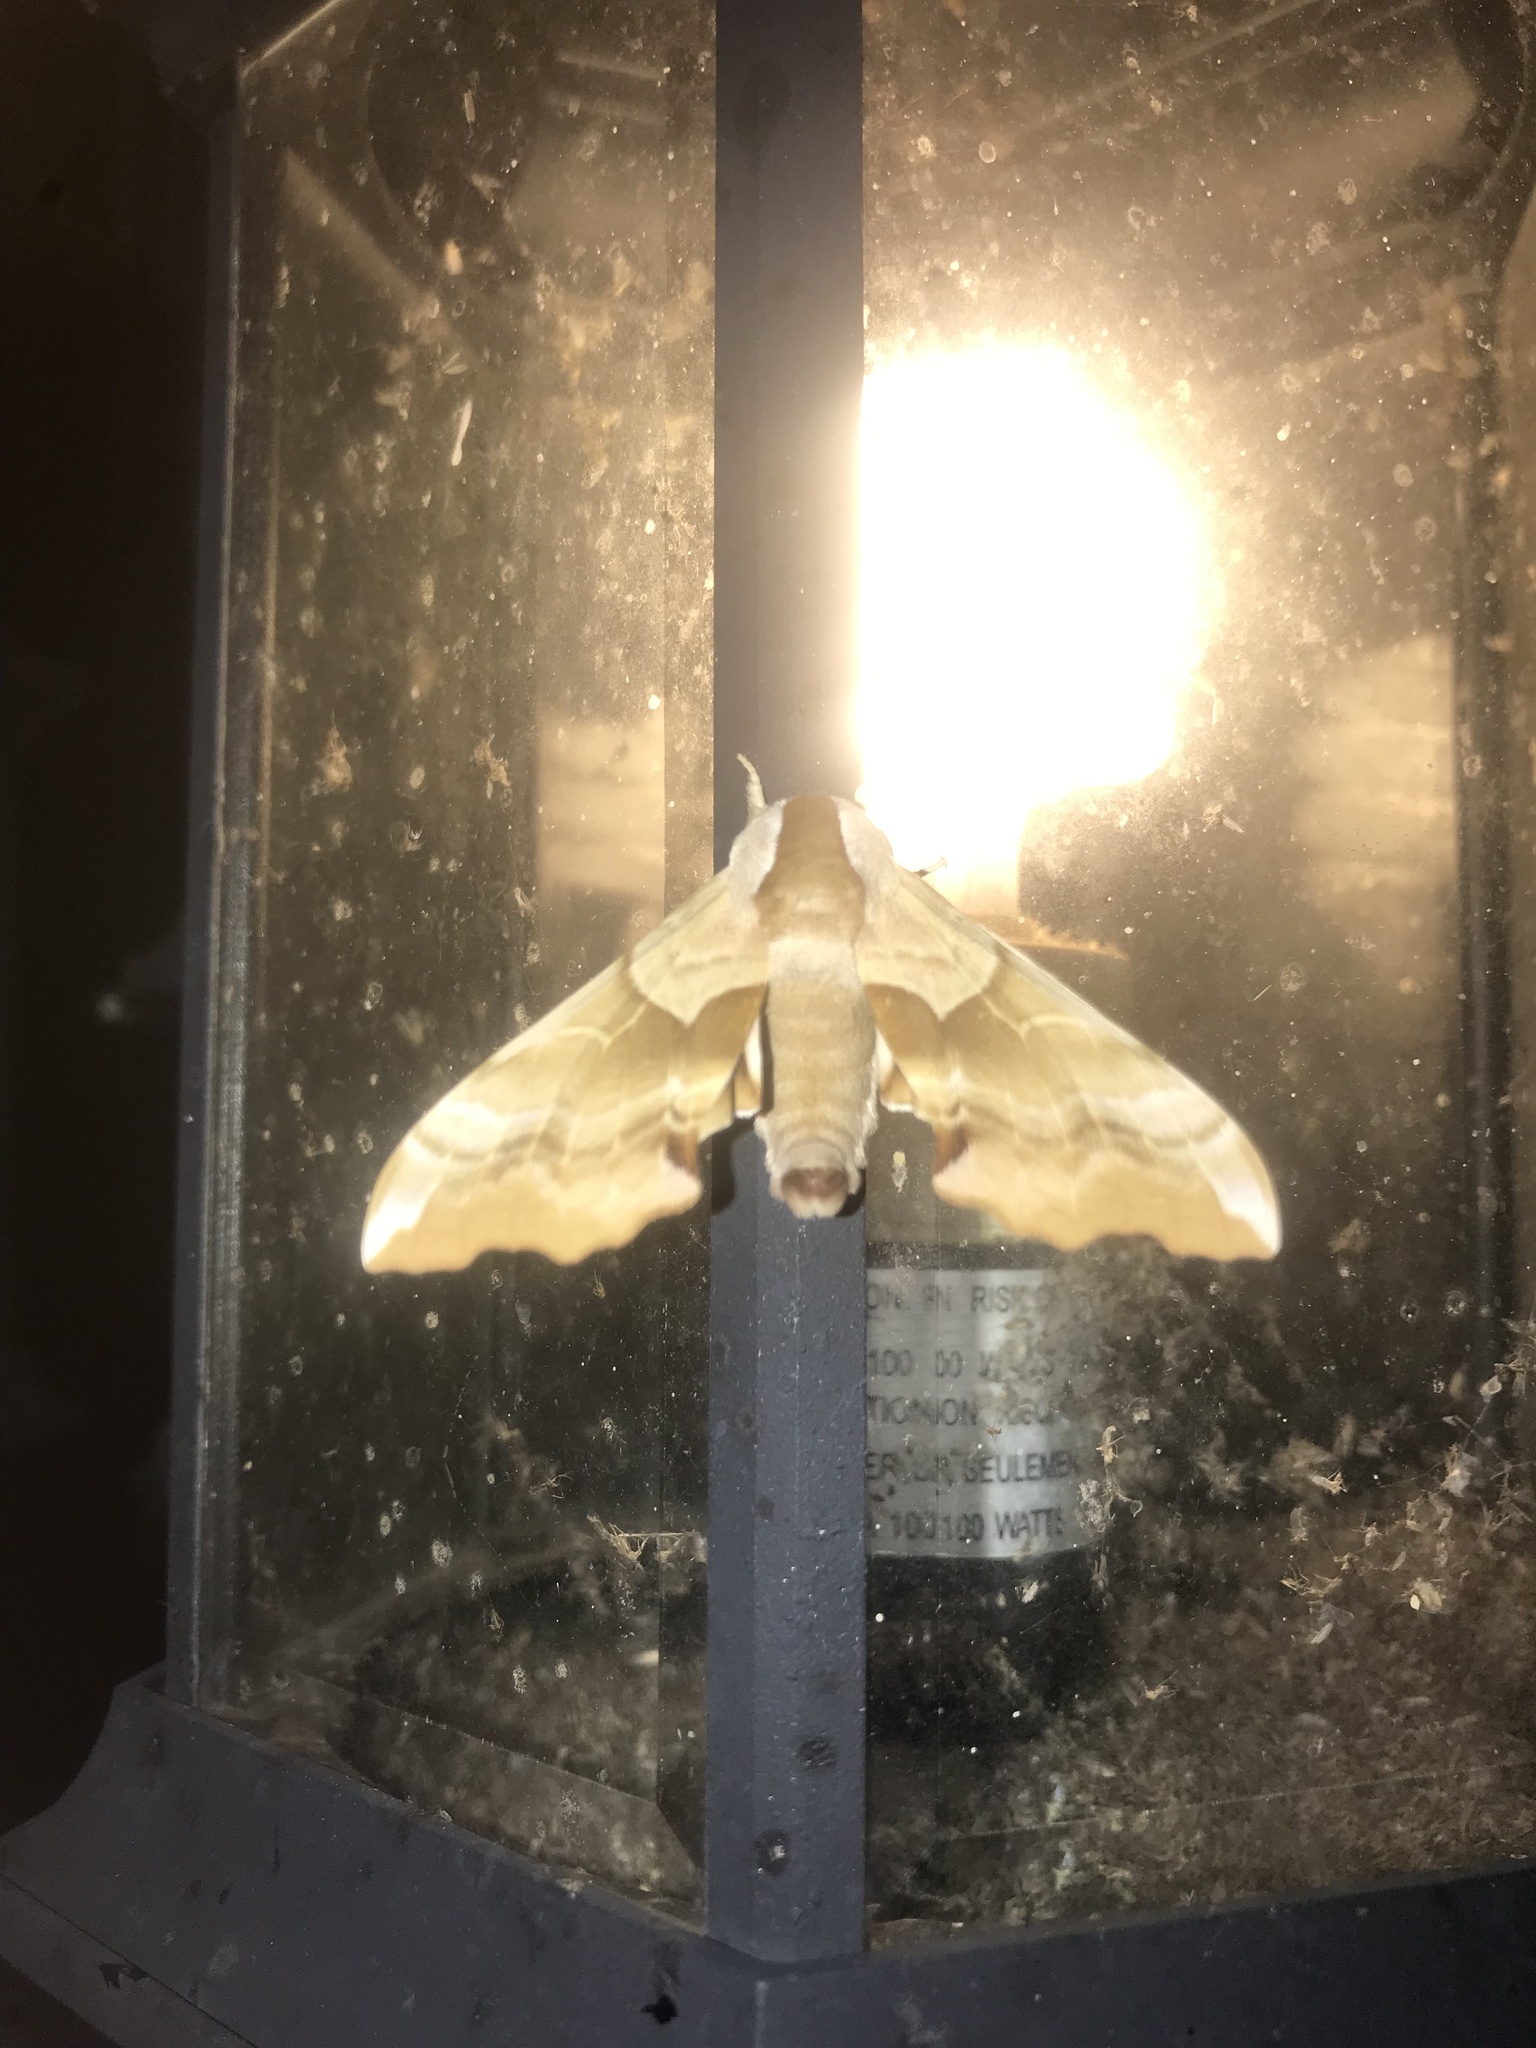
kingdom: Animalia
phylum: Arthropoda
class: Insecta
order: Lepidoptera
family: Sphingidae
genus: Smerinthus
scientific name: Smerinthus cerisyi
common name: Cerisy's sphinx moth
